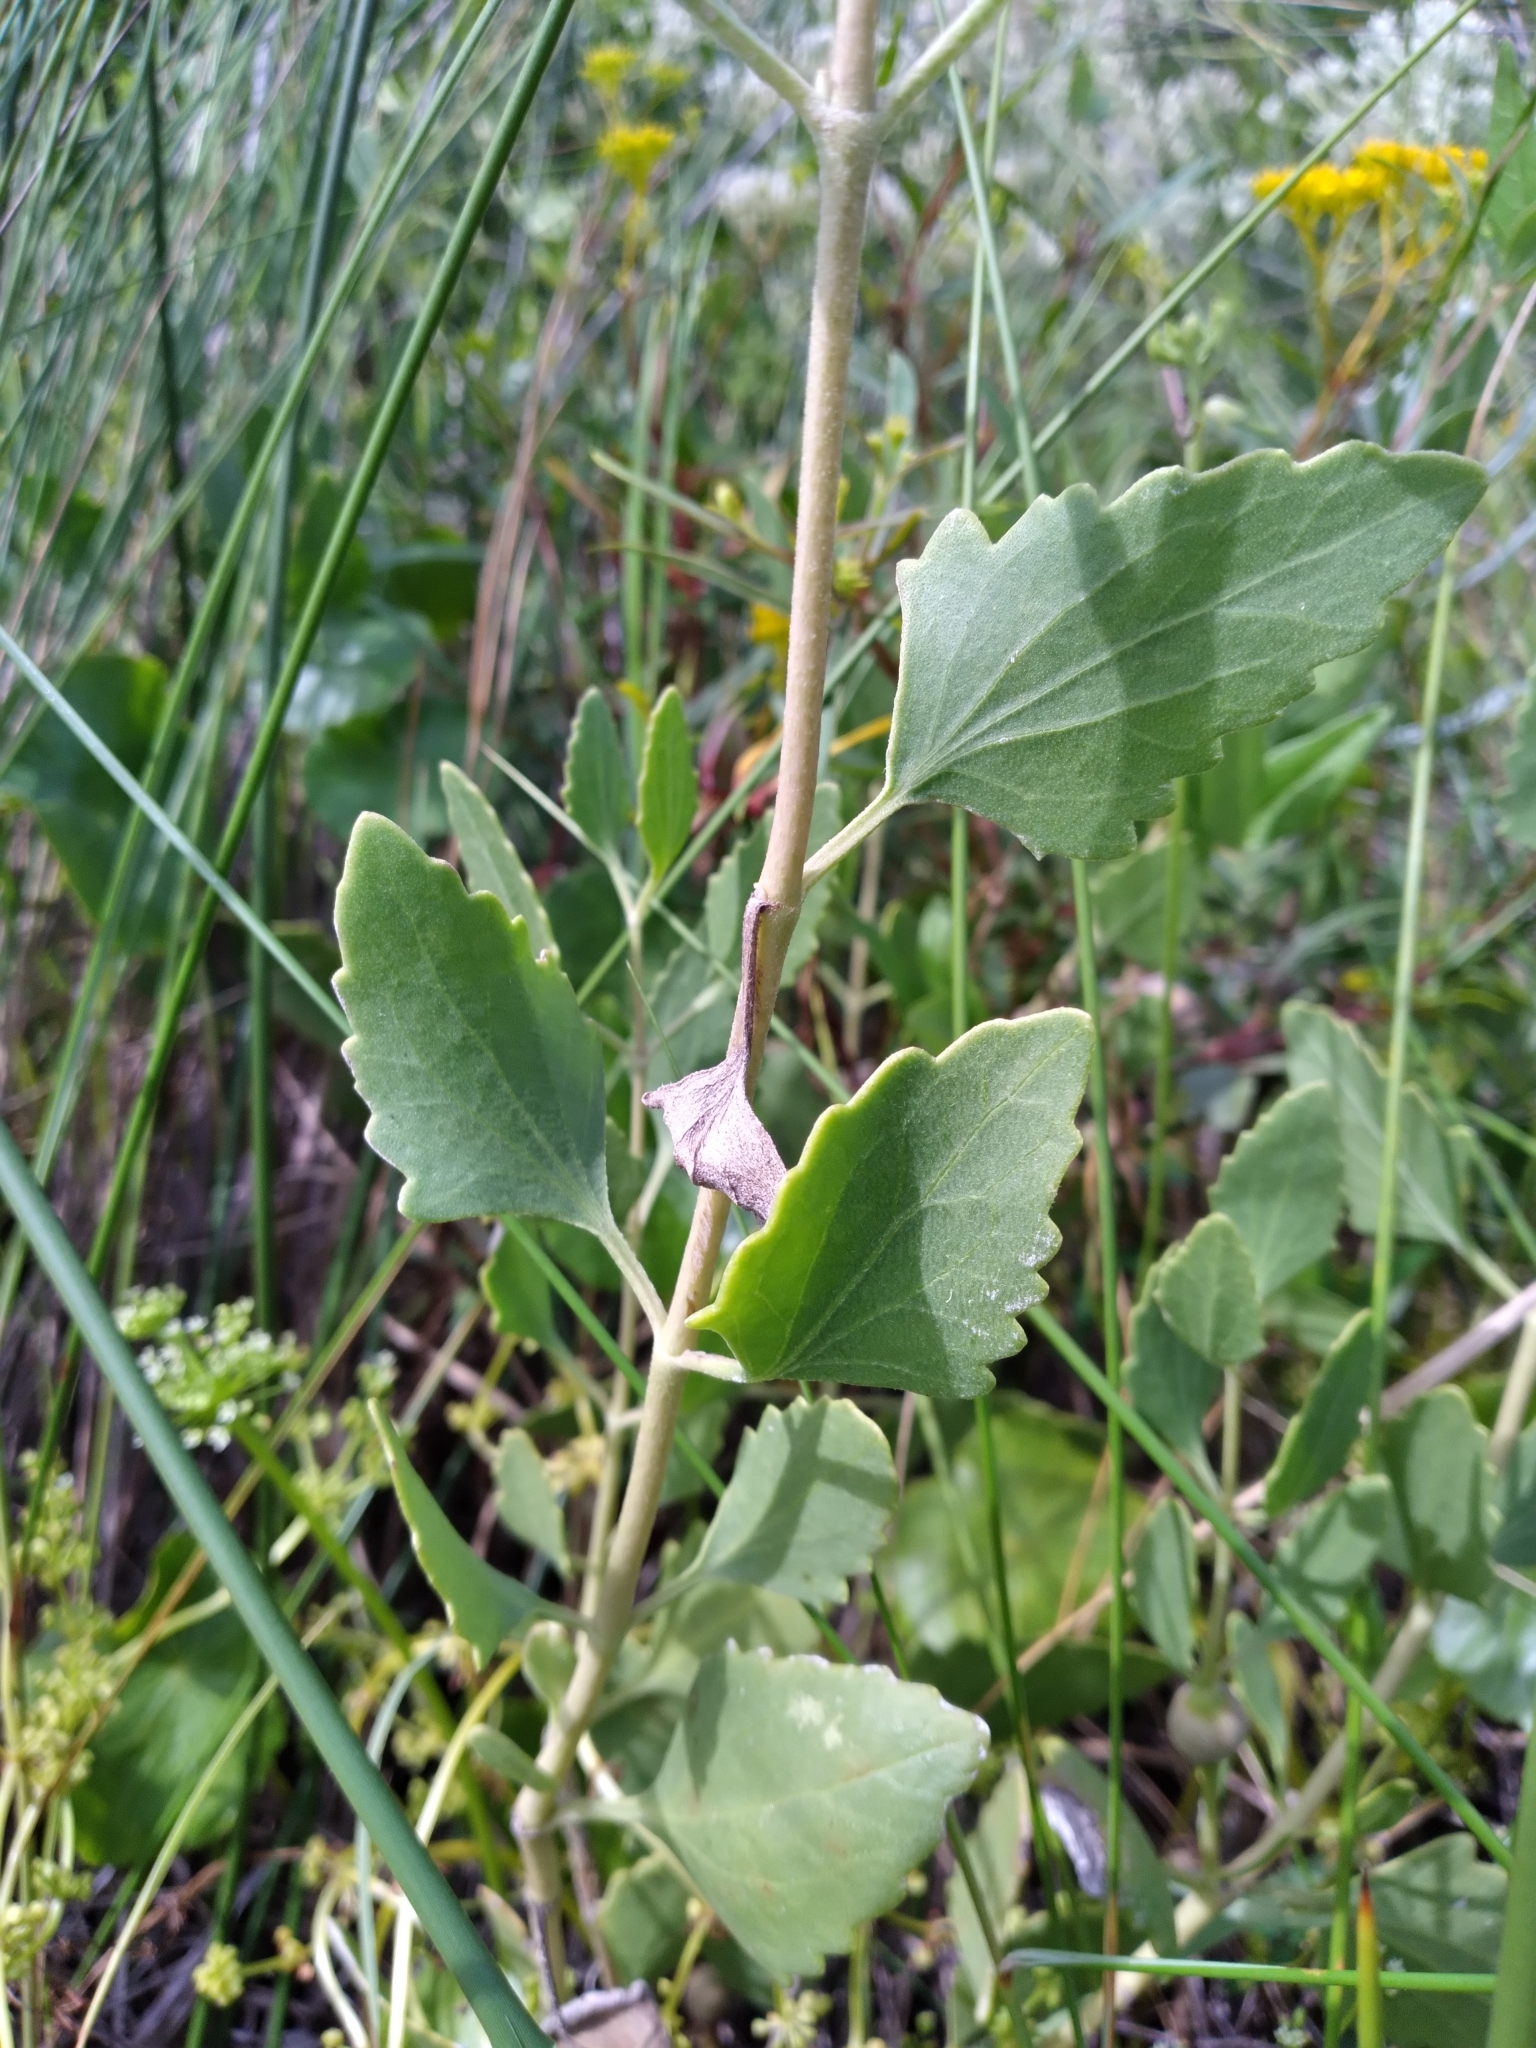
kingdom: Plantae
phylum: Tracheophyta
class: Magnoliopsida
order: Asterales
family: Asteraceae
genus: Eupatorium
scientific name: Eupatorium mikanioides
